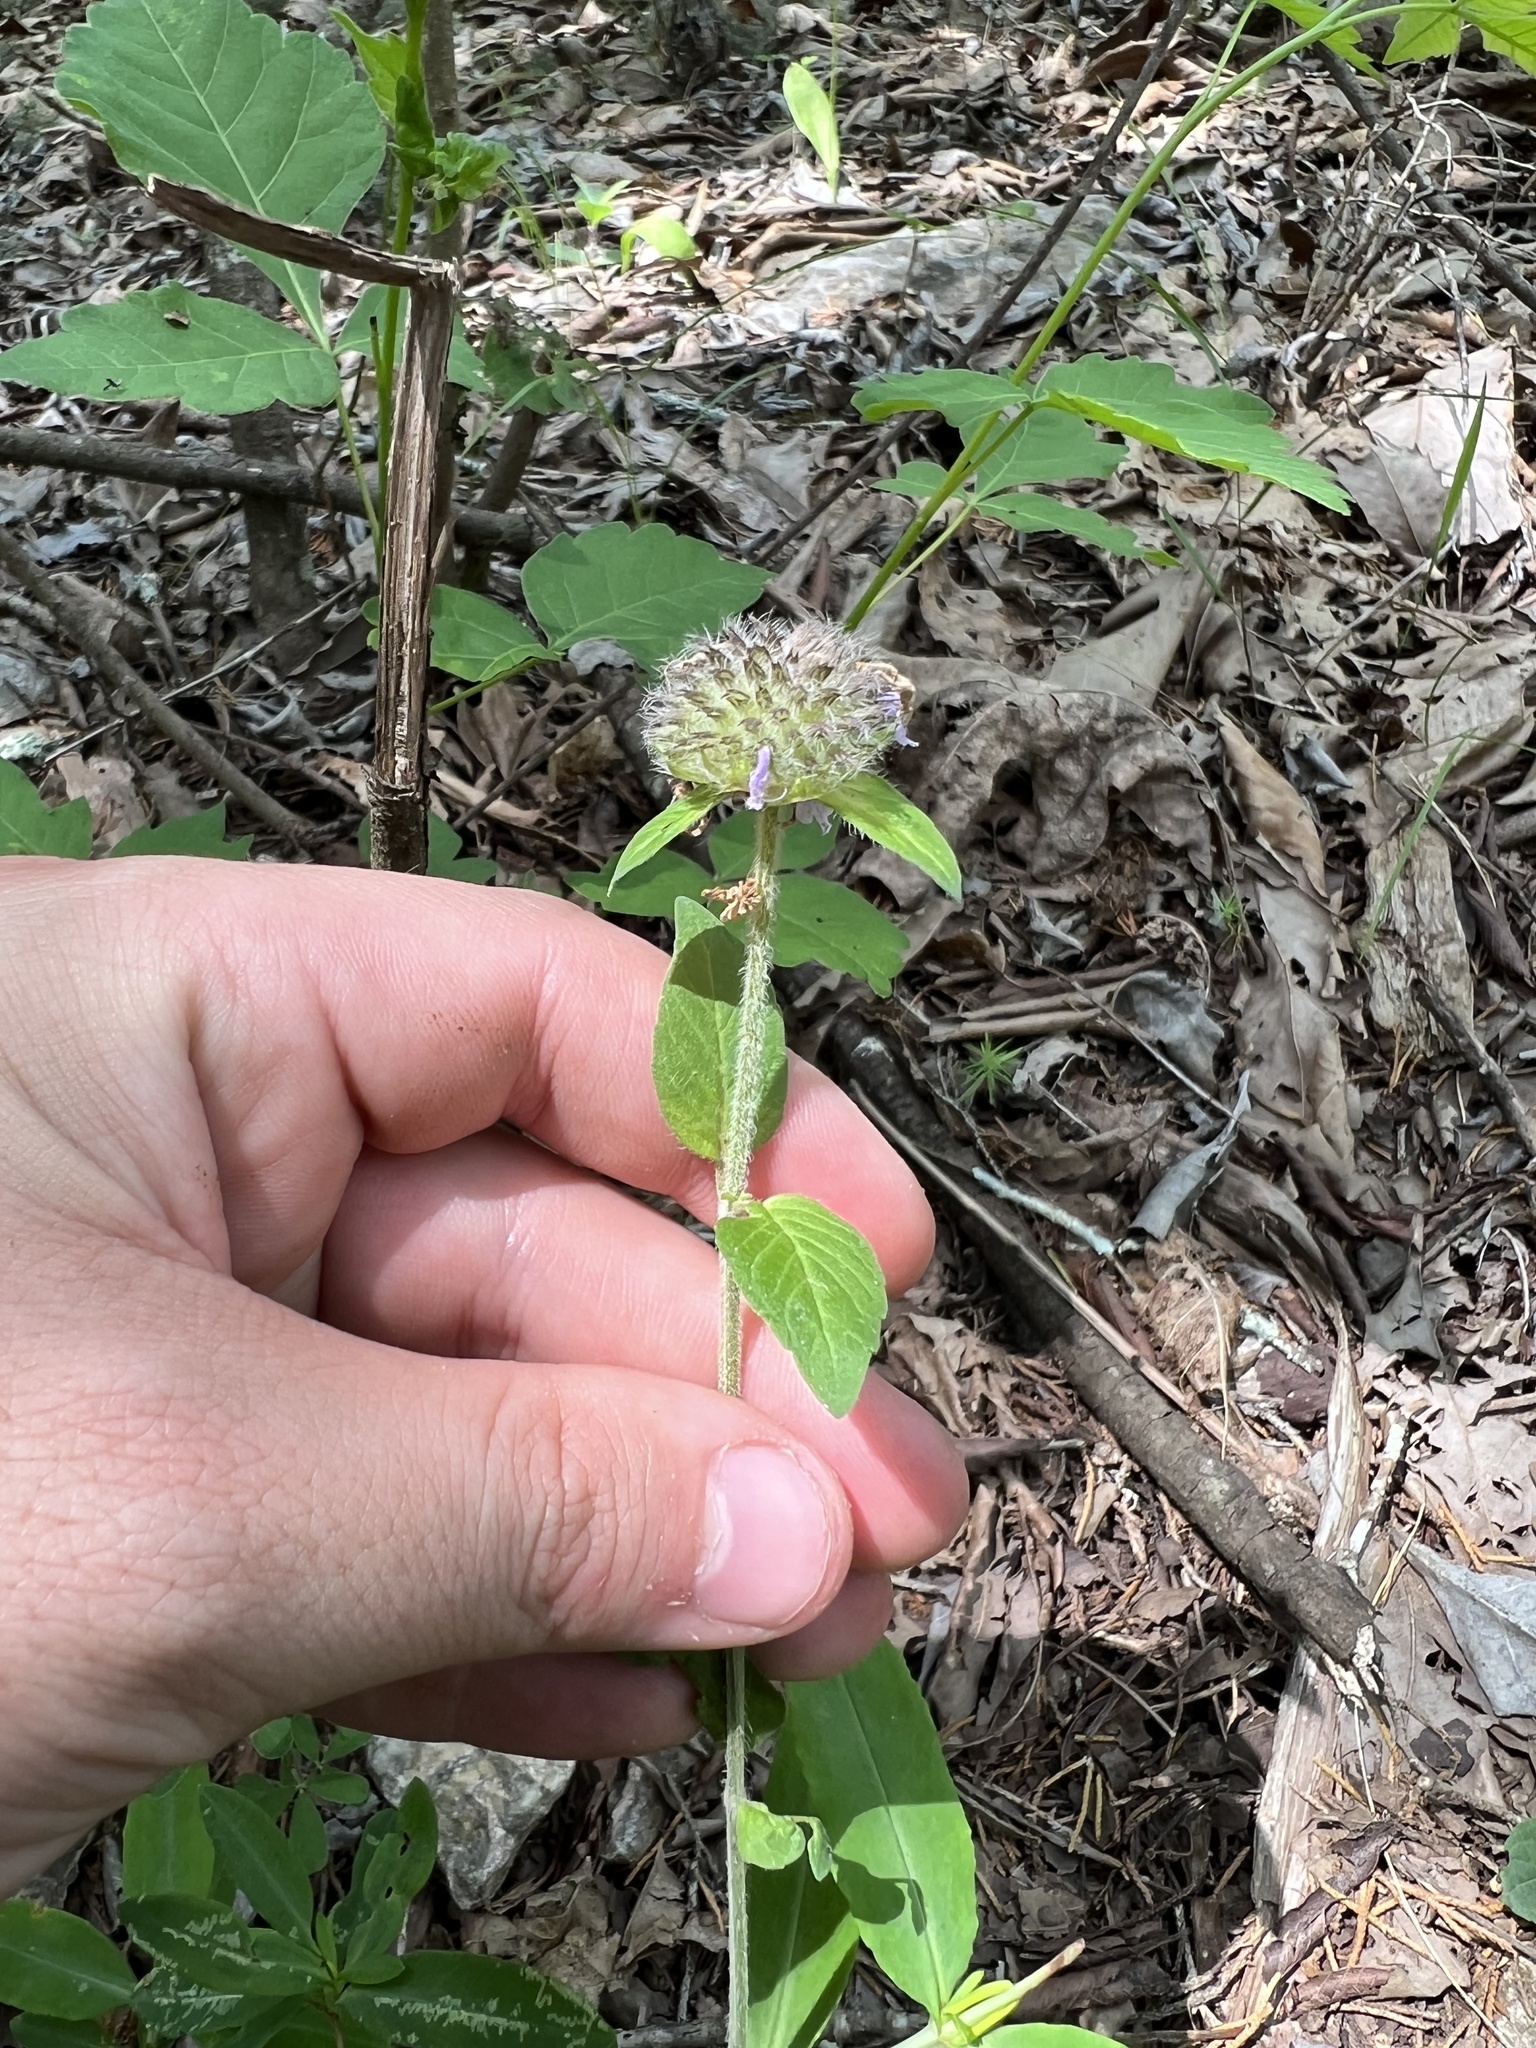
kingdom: Plantae
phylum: Tracheophyta
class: Magnoliopsida
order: Lamiales
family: Lamiaceae
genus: Blephilia
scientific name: Blephilia ciliata
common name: Downy blephilia
